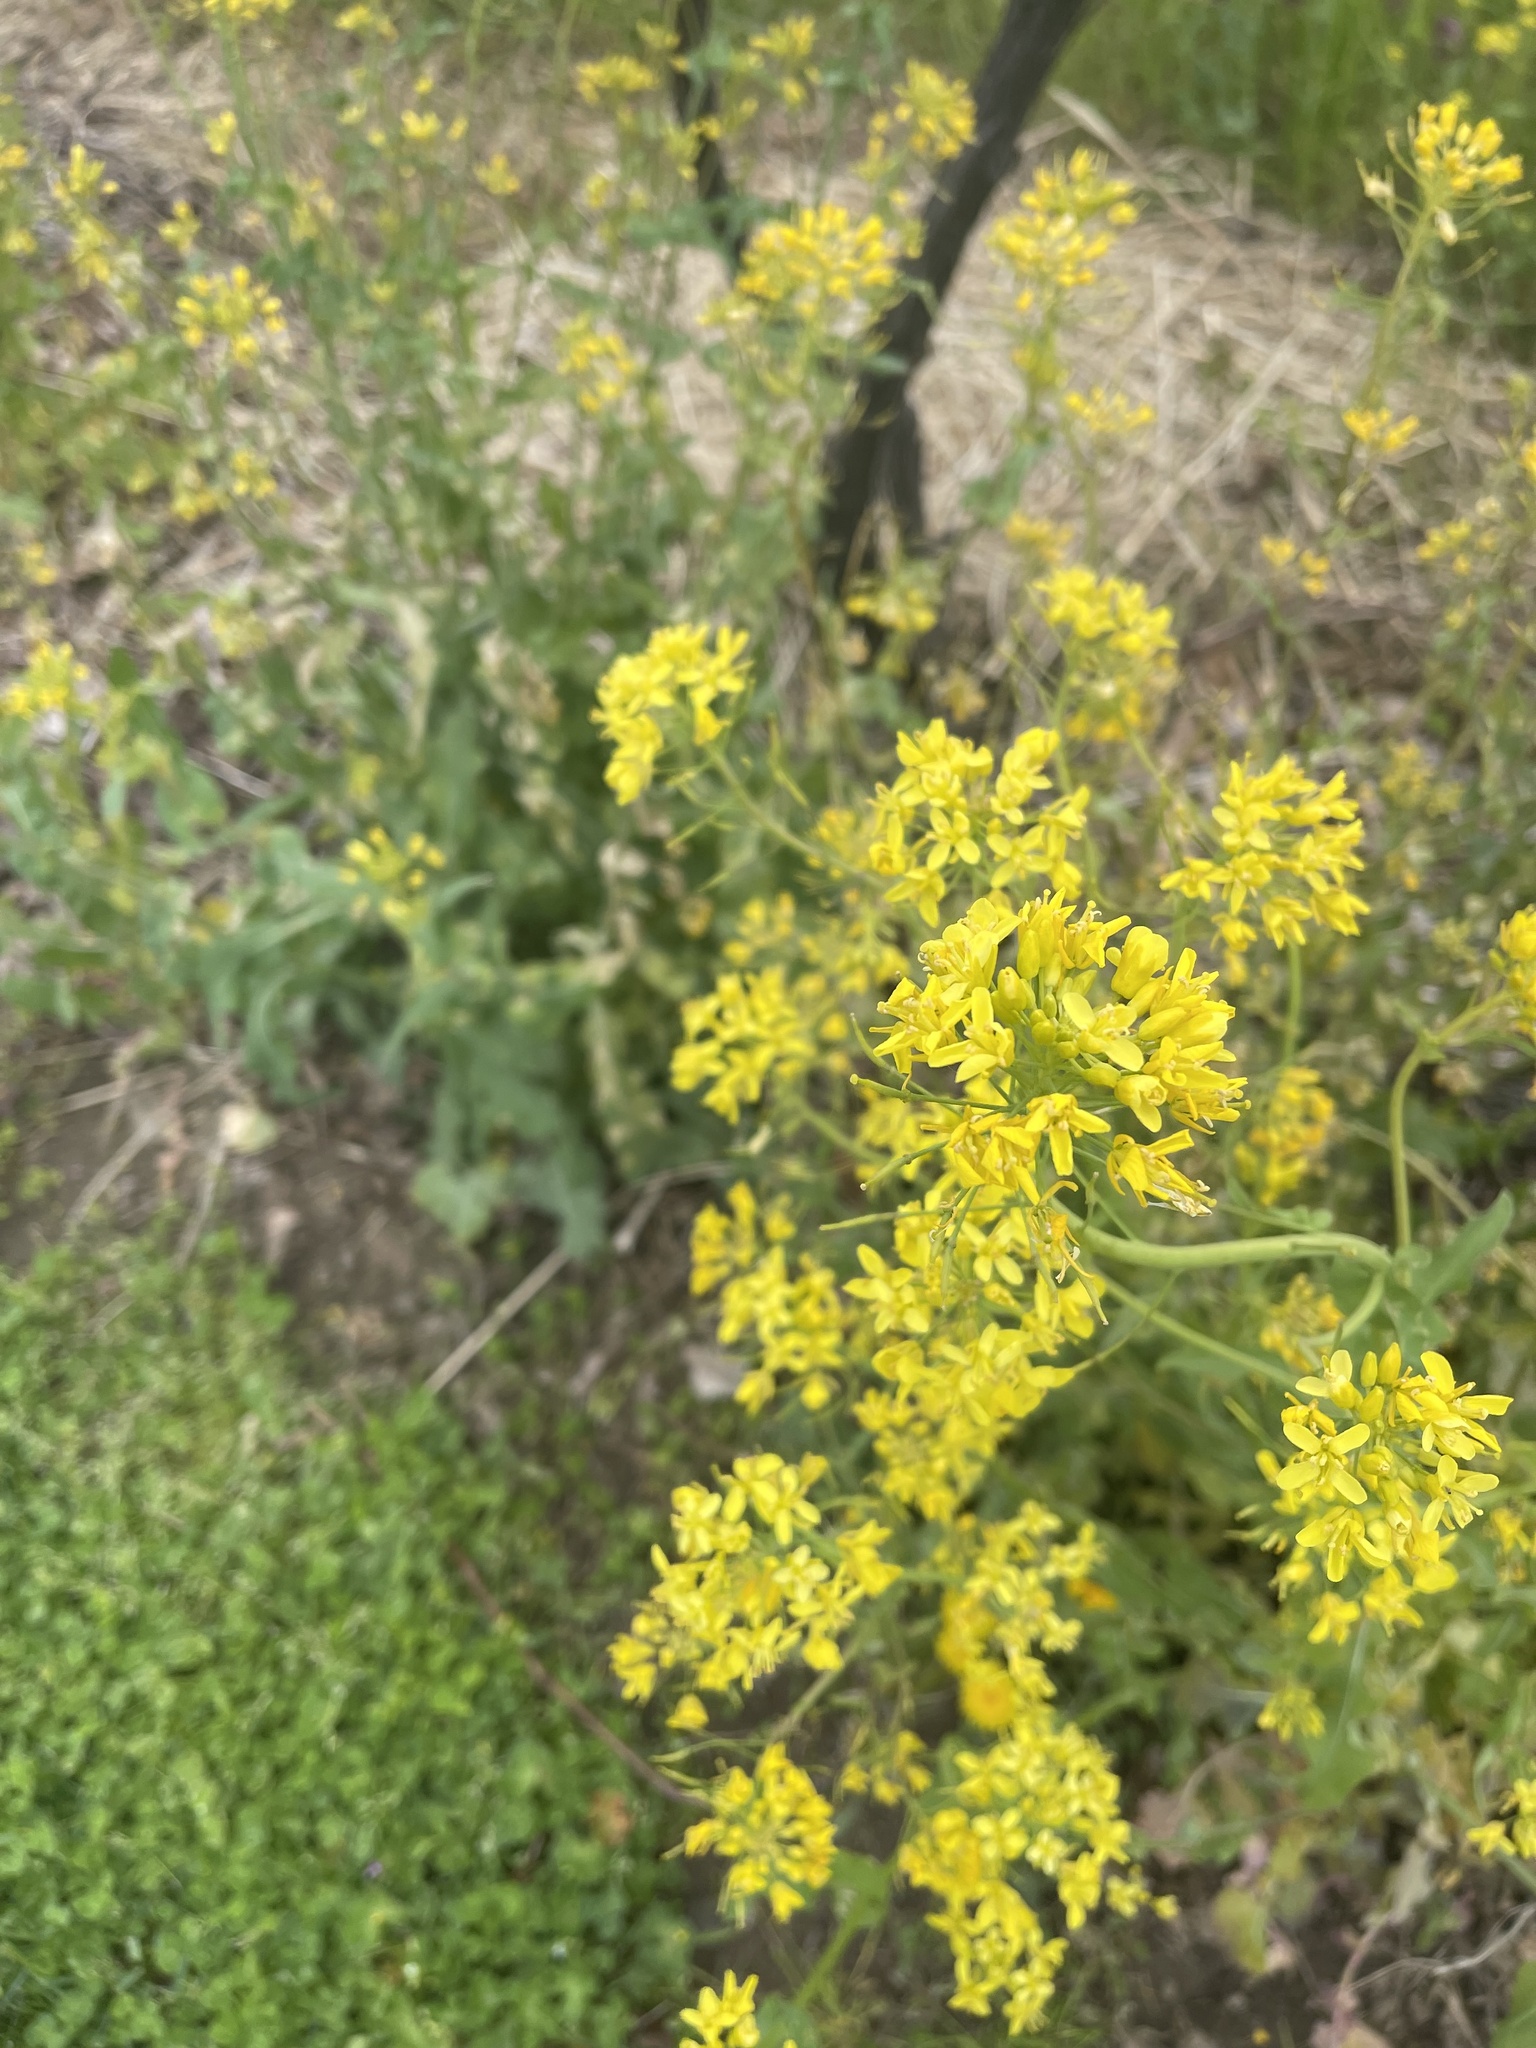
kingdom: Plantae
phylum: Tracheophyta
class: Magnoliopsida
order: Brassicales
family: Brassicaceae
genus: Barbarea
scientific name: Barbarea vulgaris
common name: Cressy-greens
